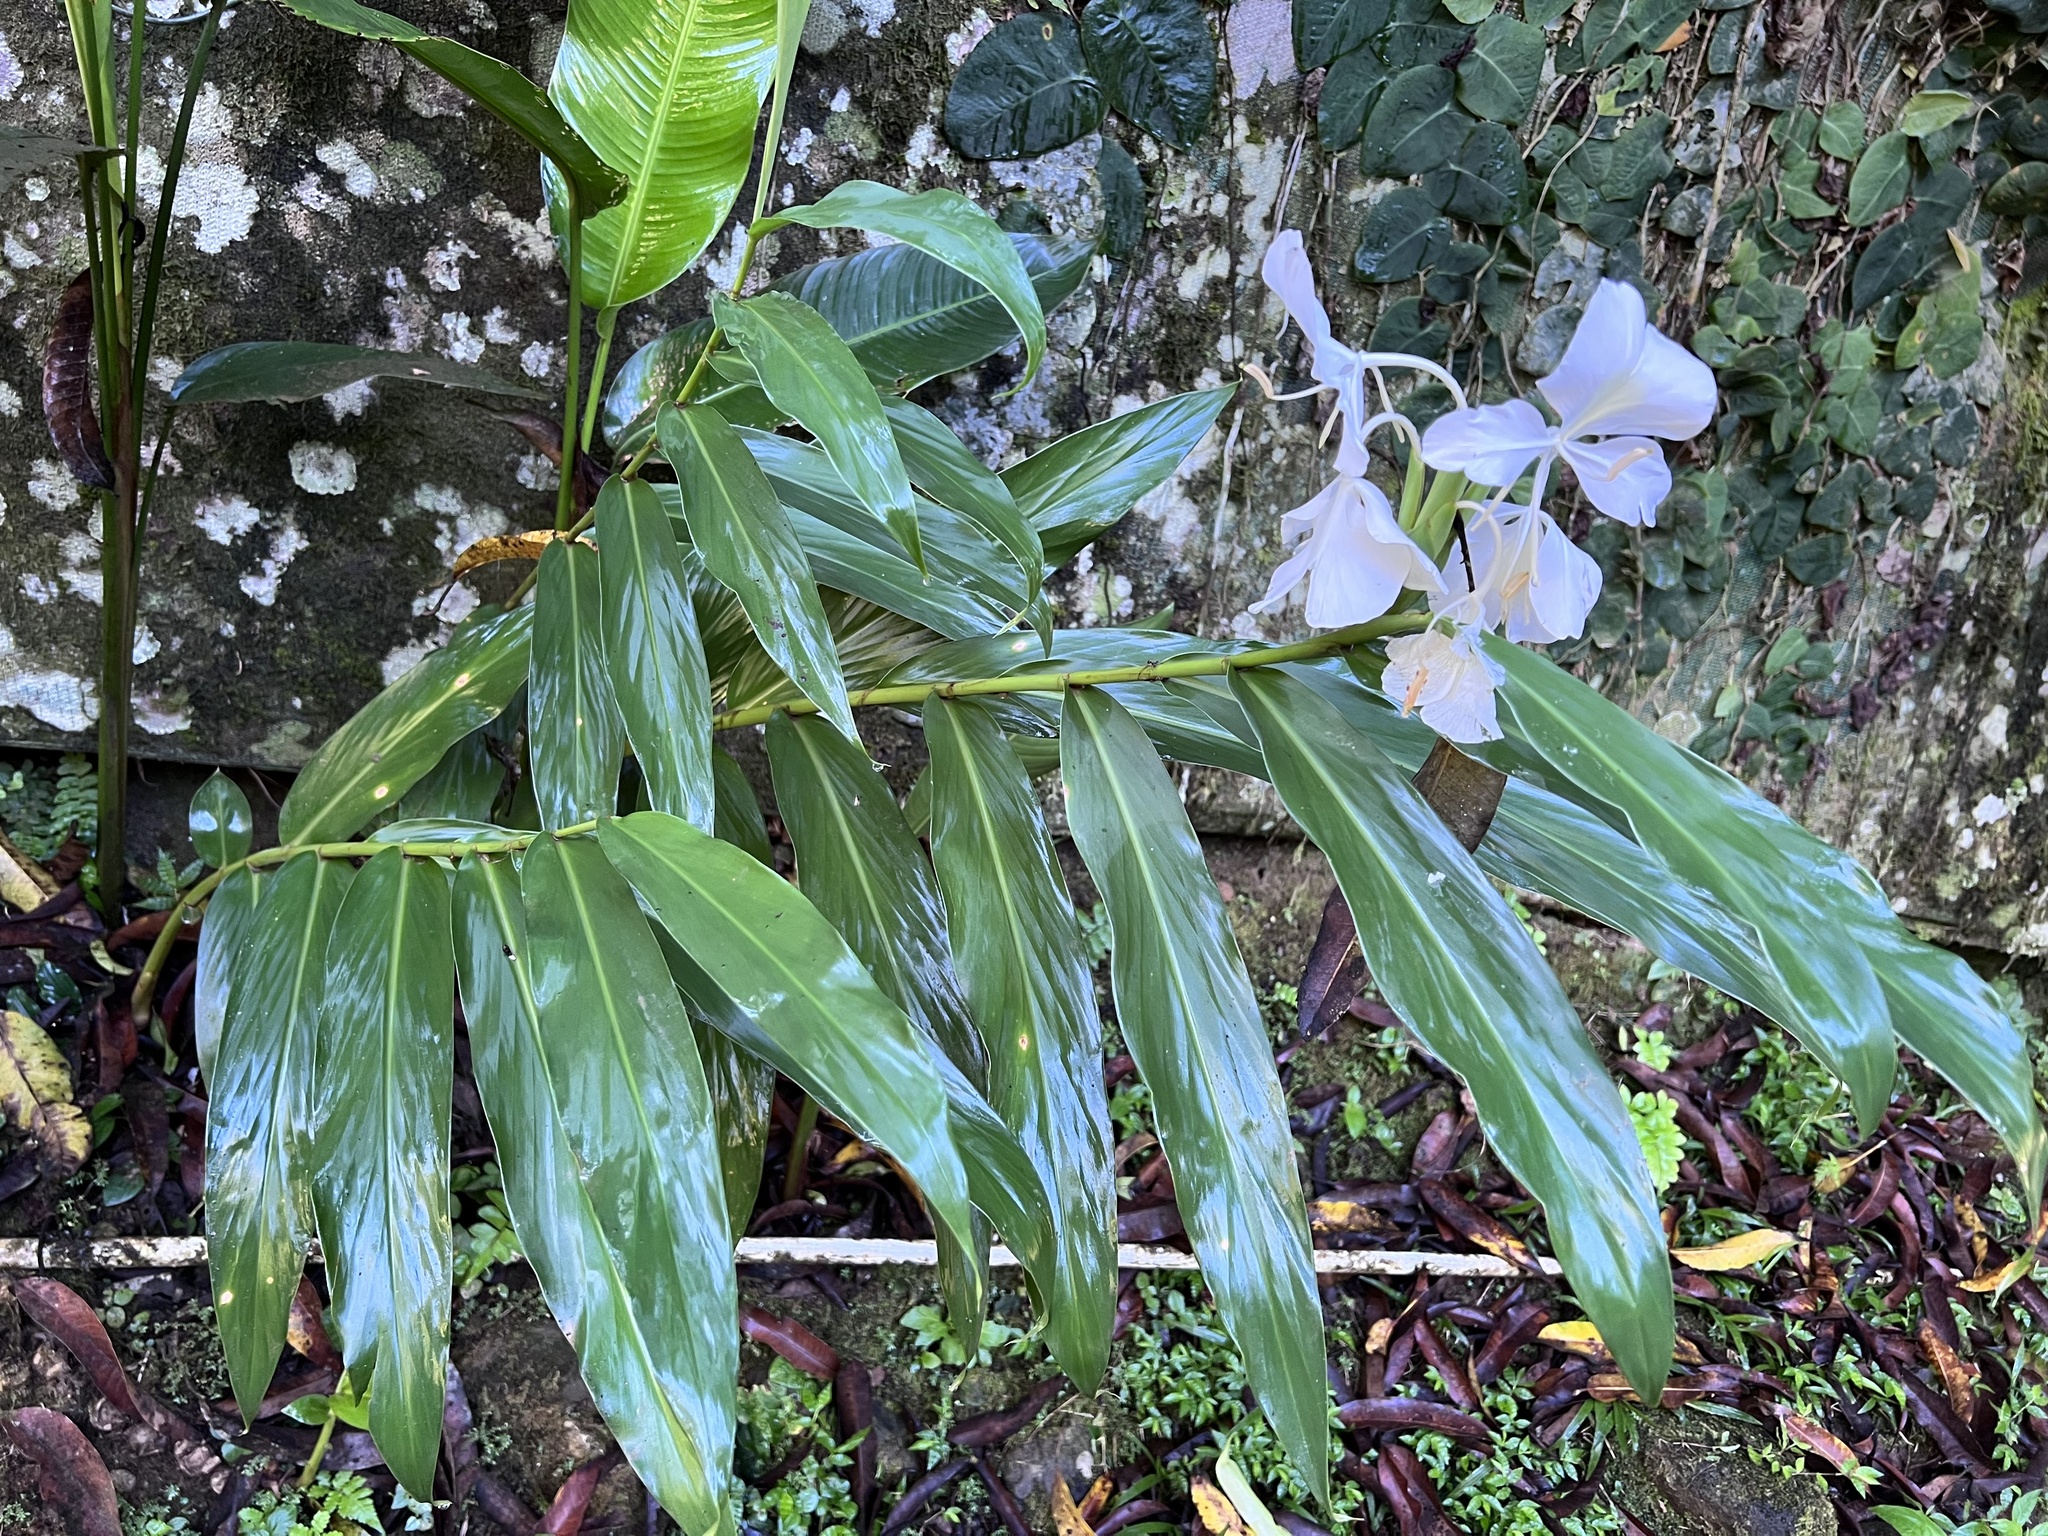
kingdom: Plantae
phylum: Tracheophyta
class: Liliopsida
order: Zingiberales
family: Zingiberaceae
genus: Hedychium
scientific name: Hedychium coronarium
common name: White garland-lily
